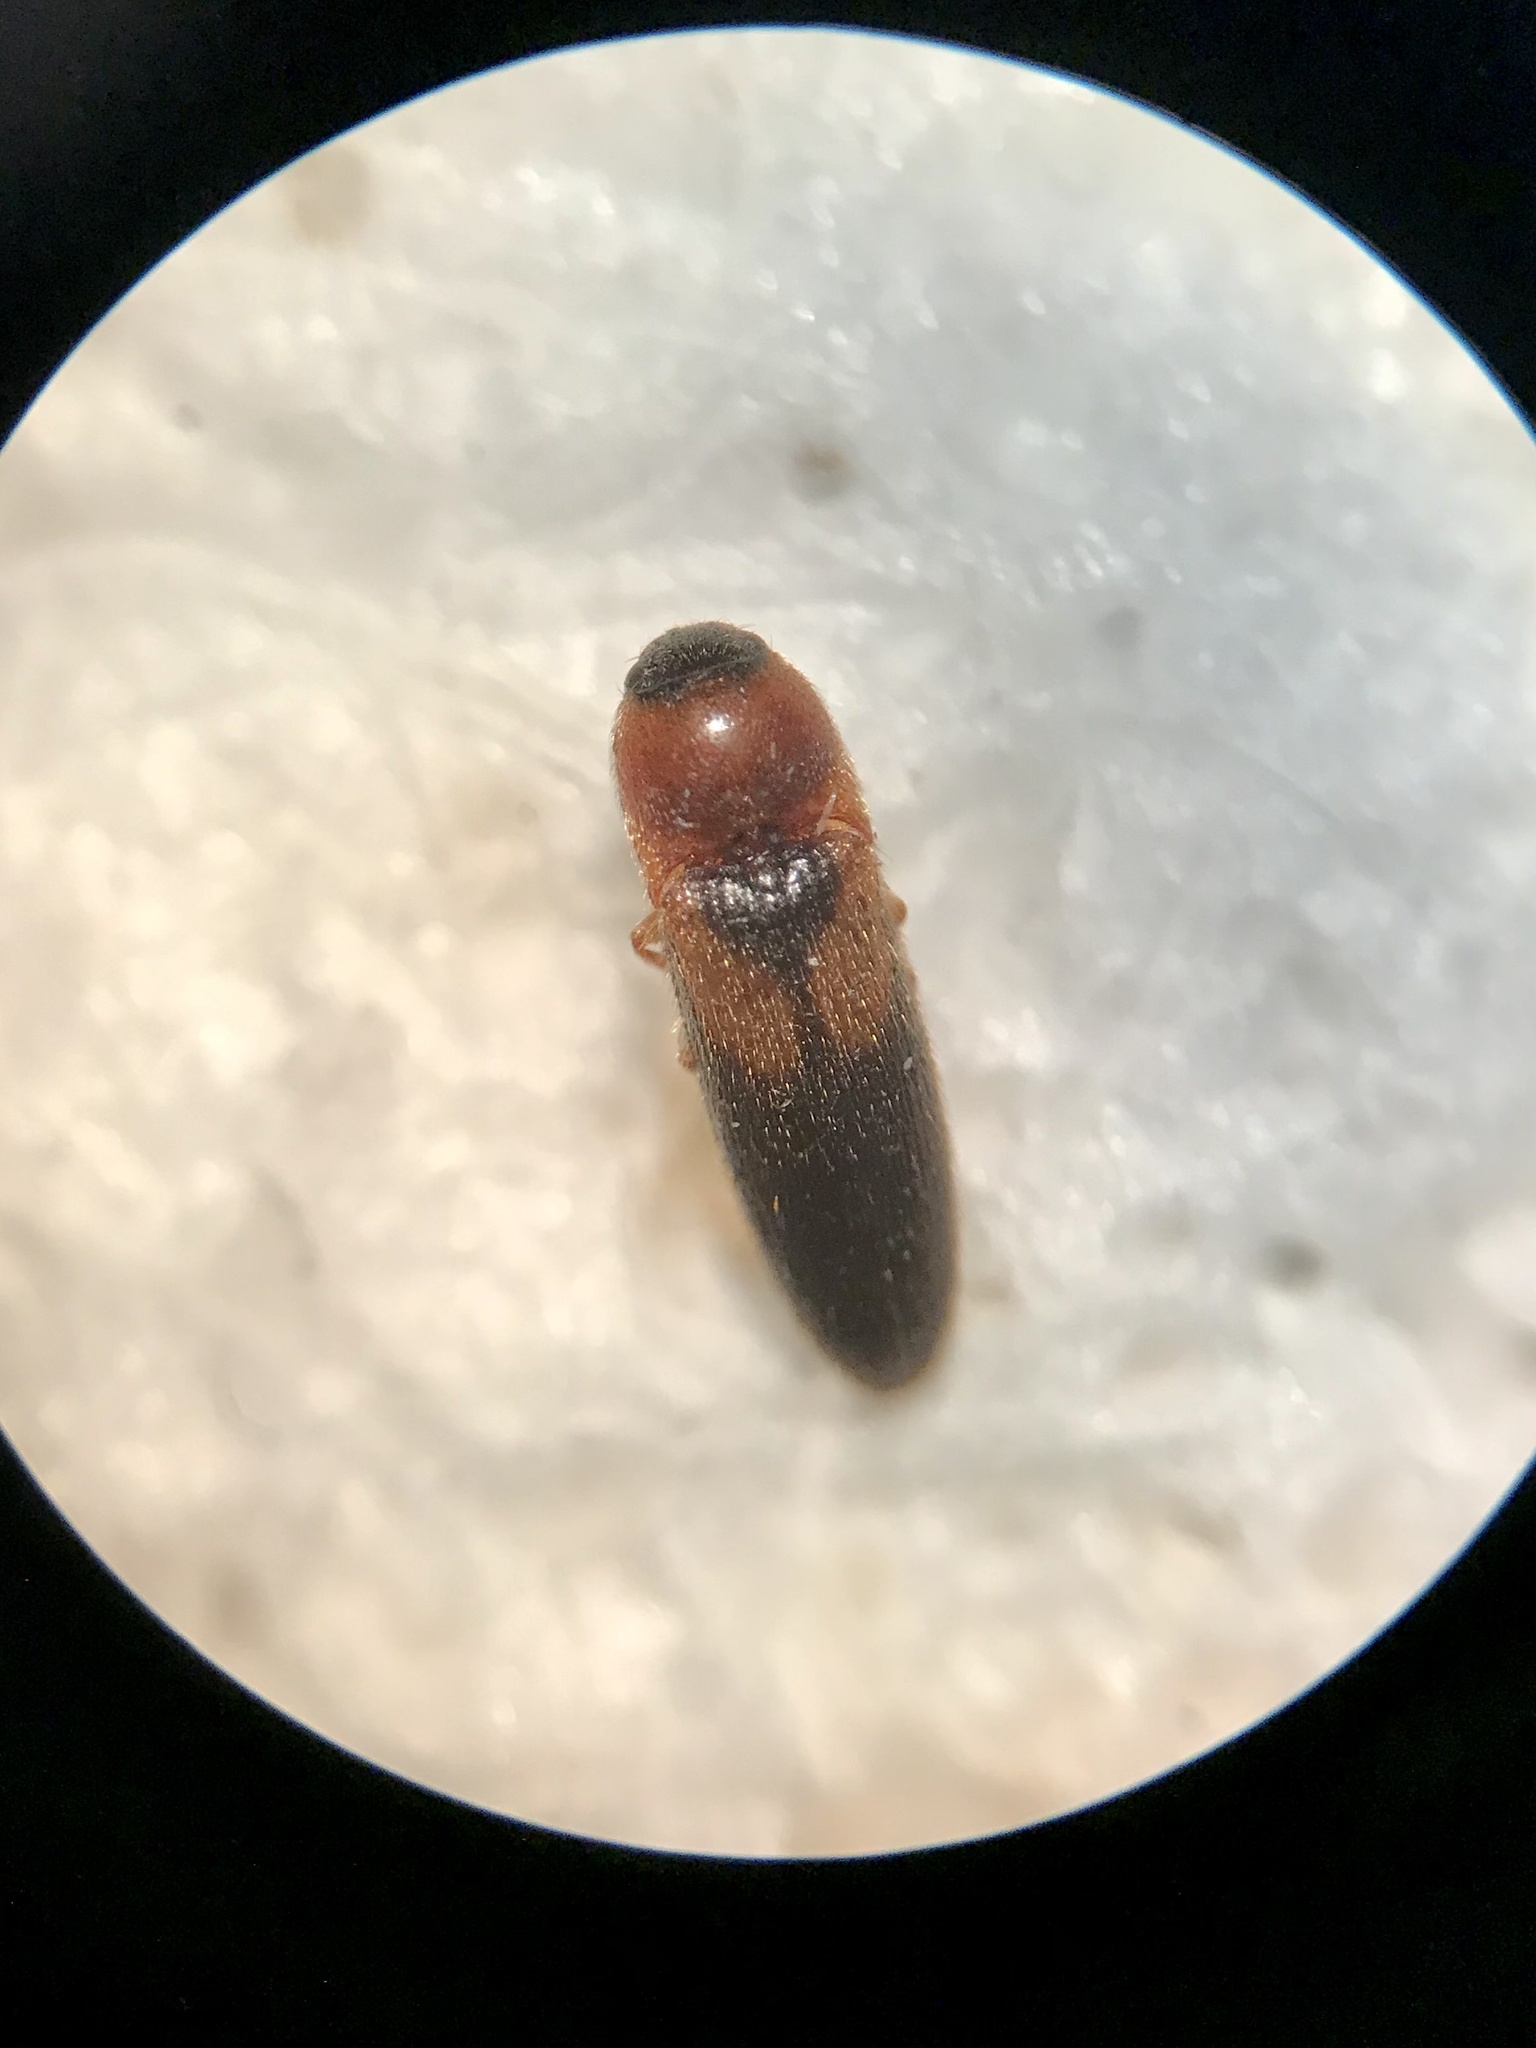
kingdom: Animalia
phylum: Arthropoda
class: Insecta
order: Coleoptera
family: Elateridae
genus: Ampedus
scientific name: Ampedus areolatus
